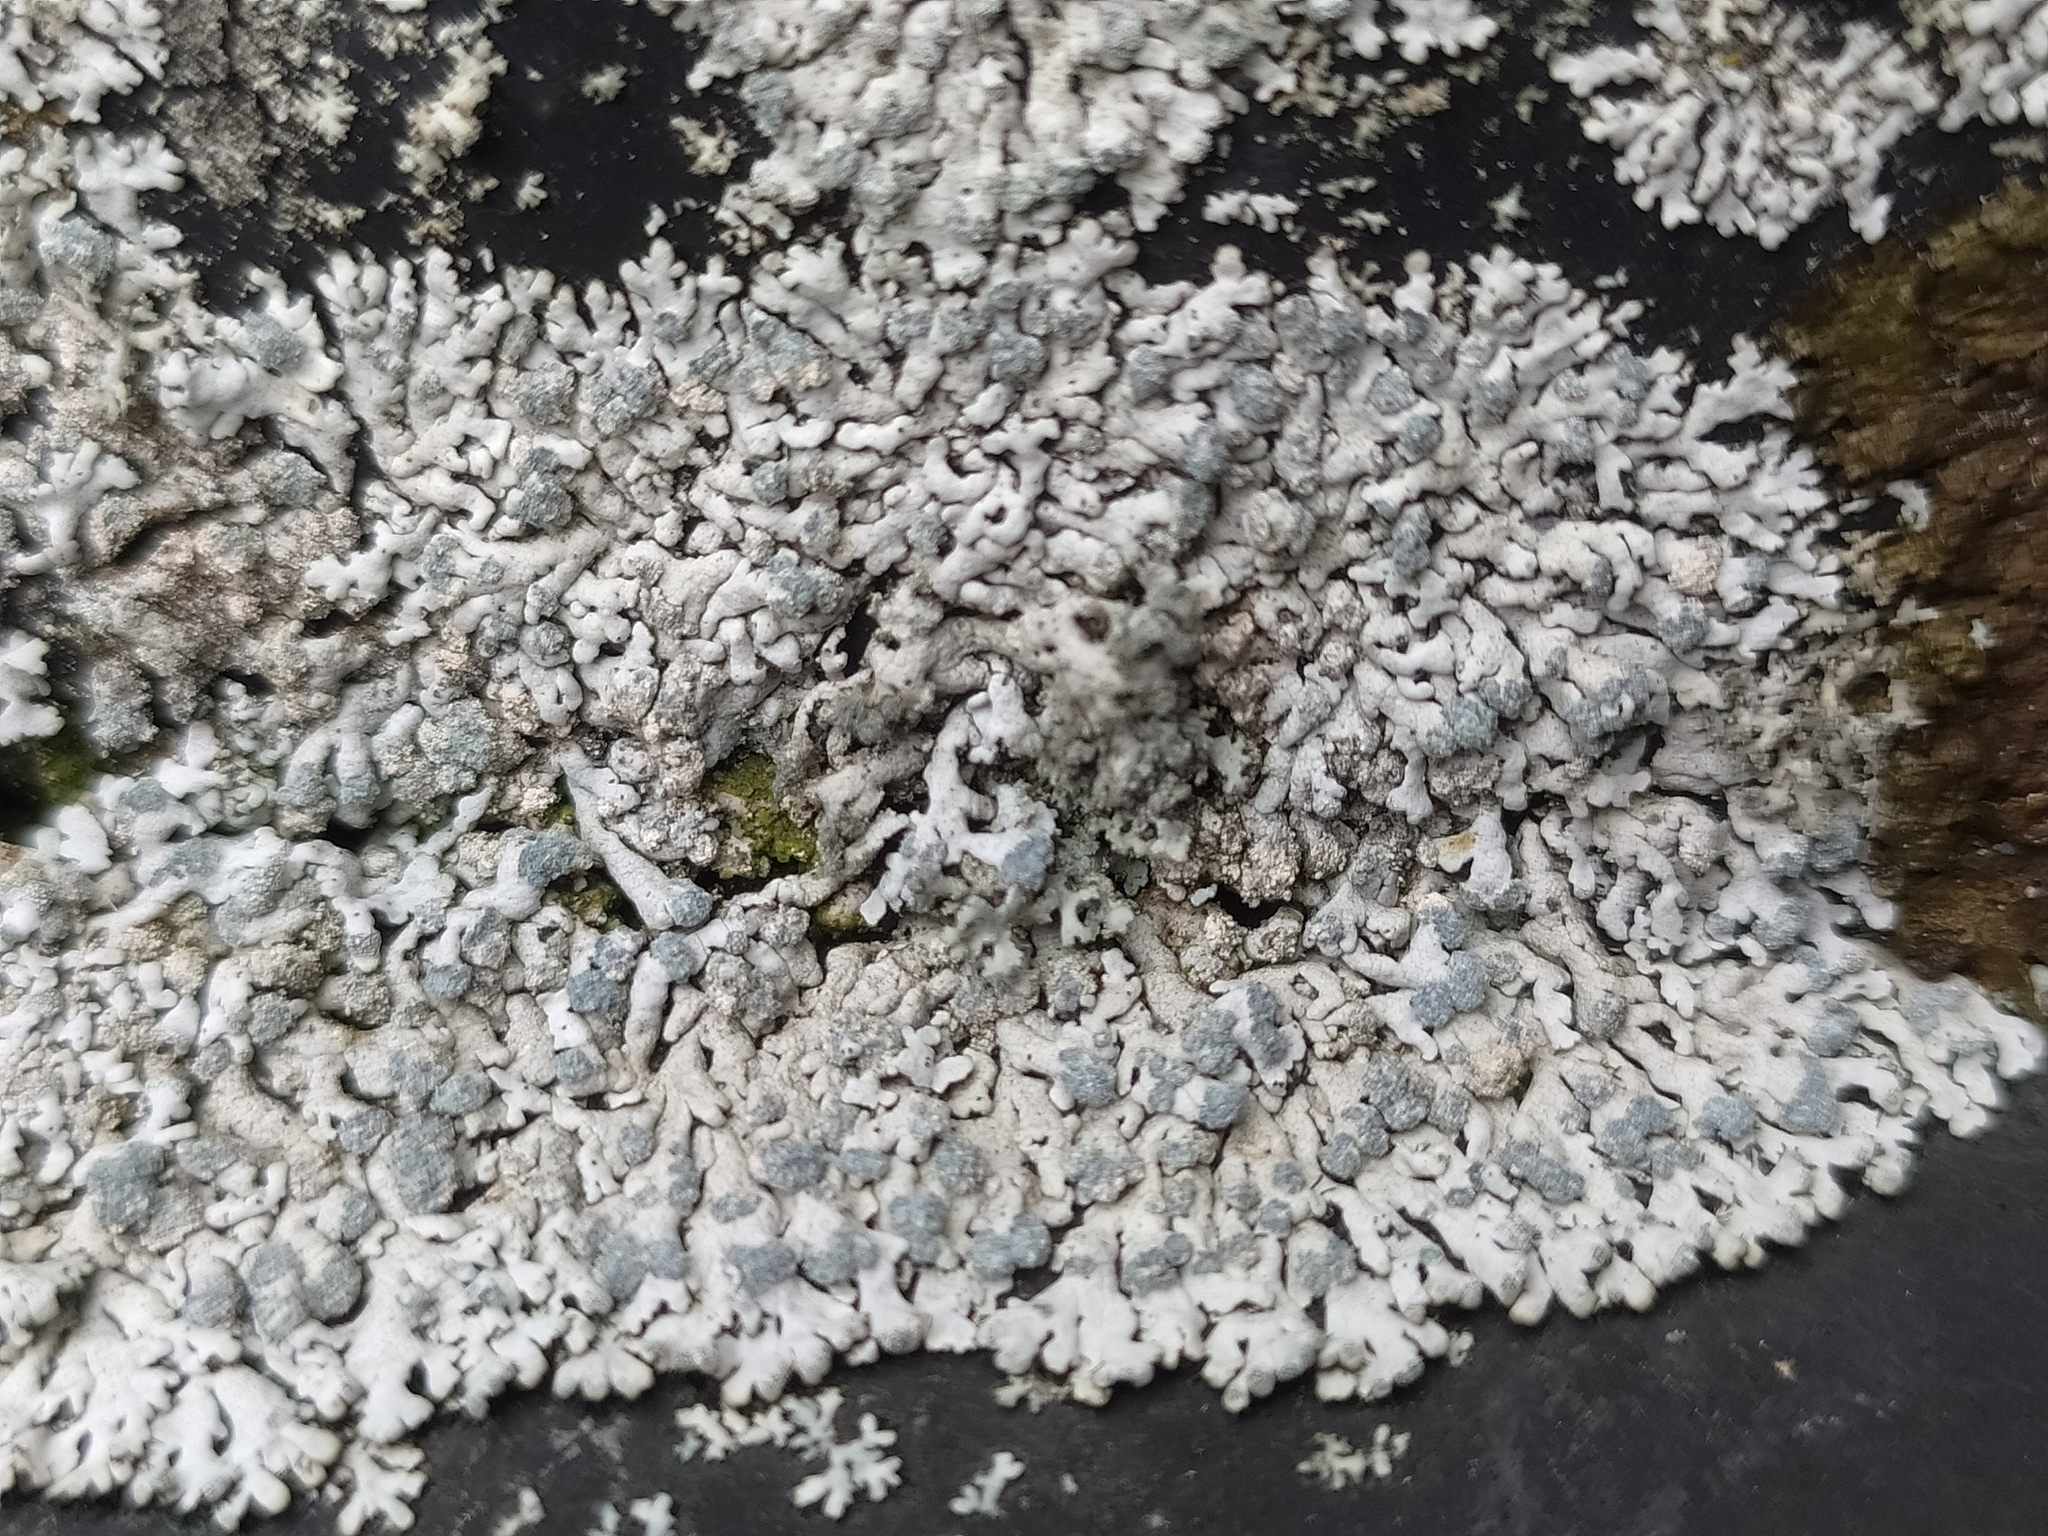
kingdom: Fungi
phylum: Ascomycota
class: Lecanoromycetes
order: Caliciales
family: Physciaceae
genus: Physcia
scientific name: Physcia caesia
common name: Blue-gray rosette lichen
